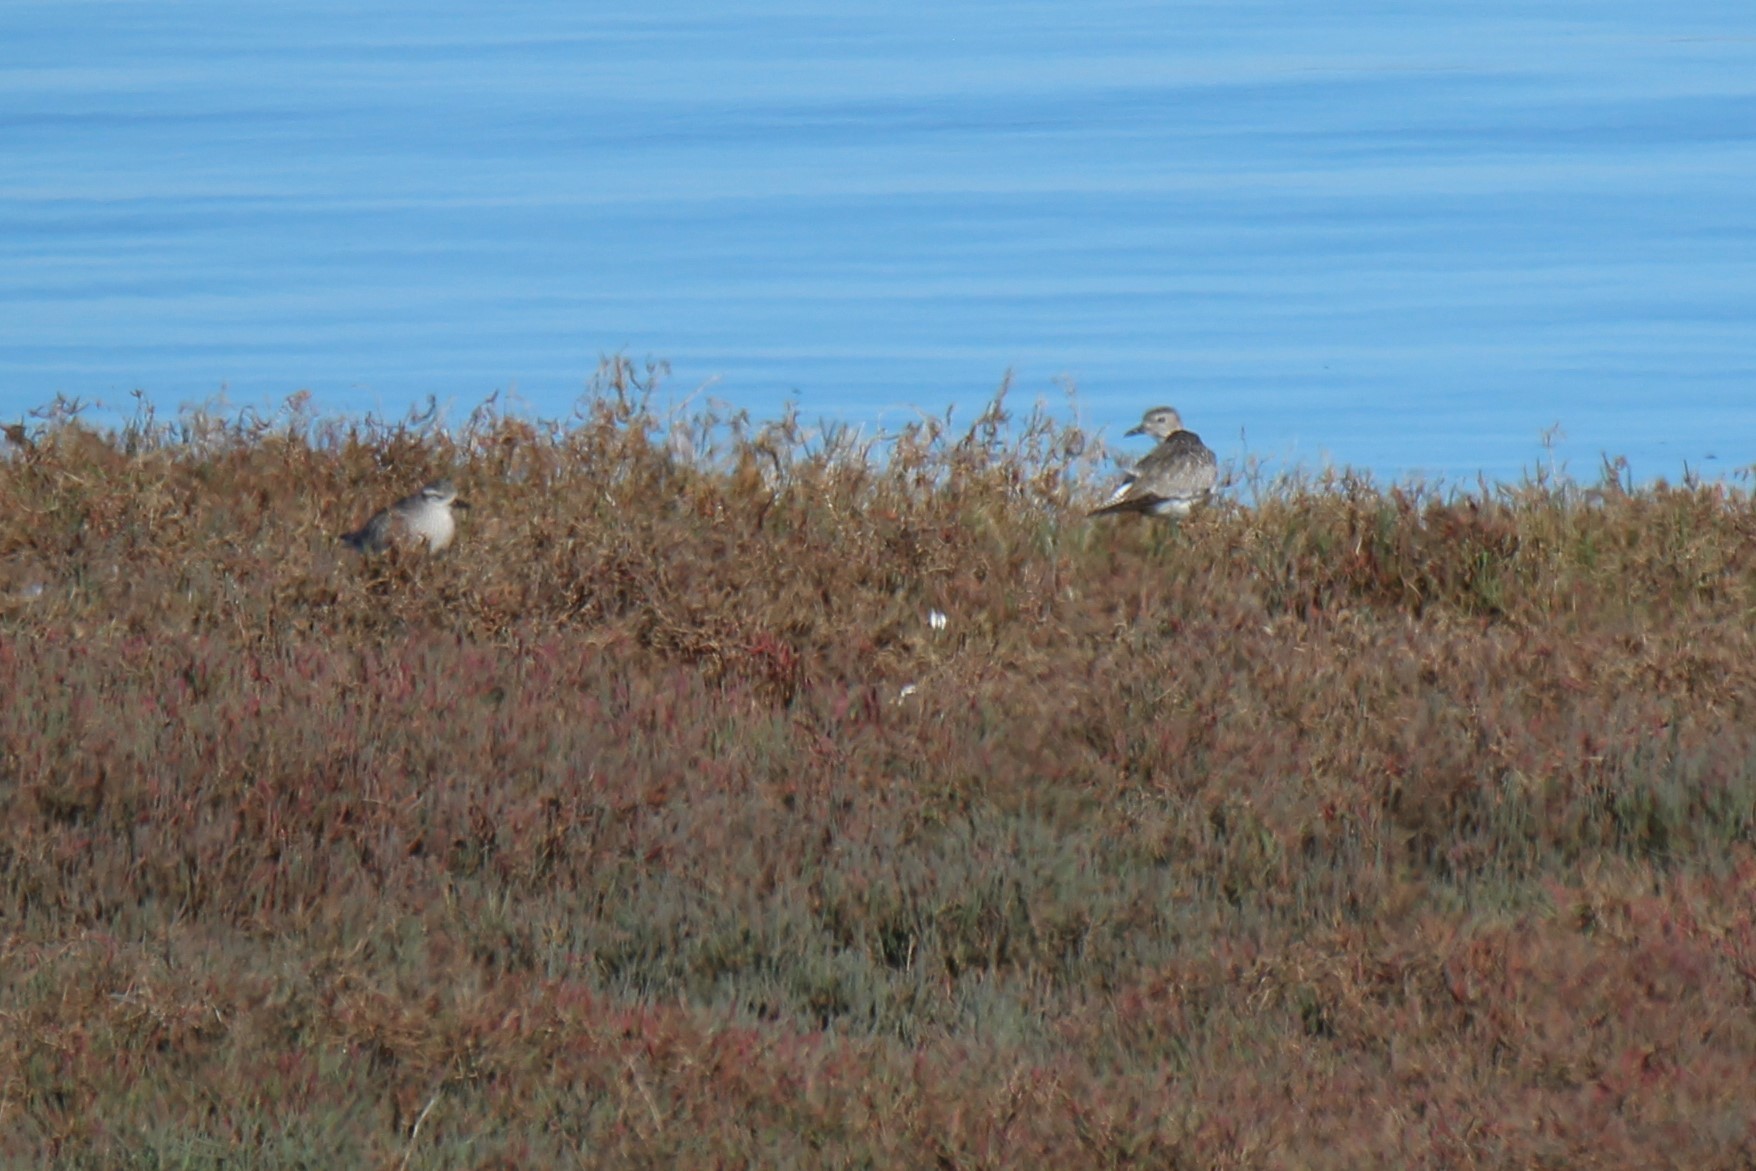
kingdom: Animalia
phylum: Chordata
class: Aves
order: Charadriiformes
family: Charadriidae
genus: Pluvialis
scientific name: Pluvialis squatarola
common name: Grey plover
